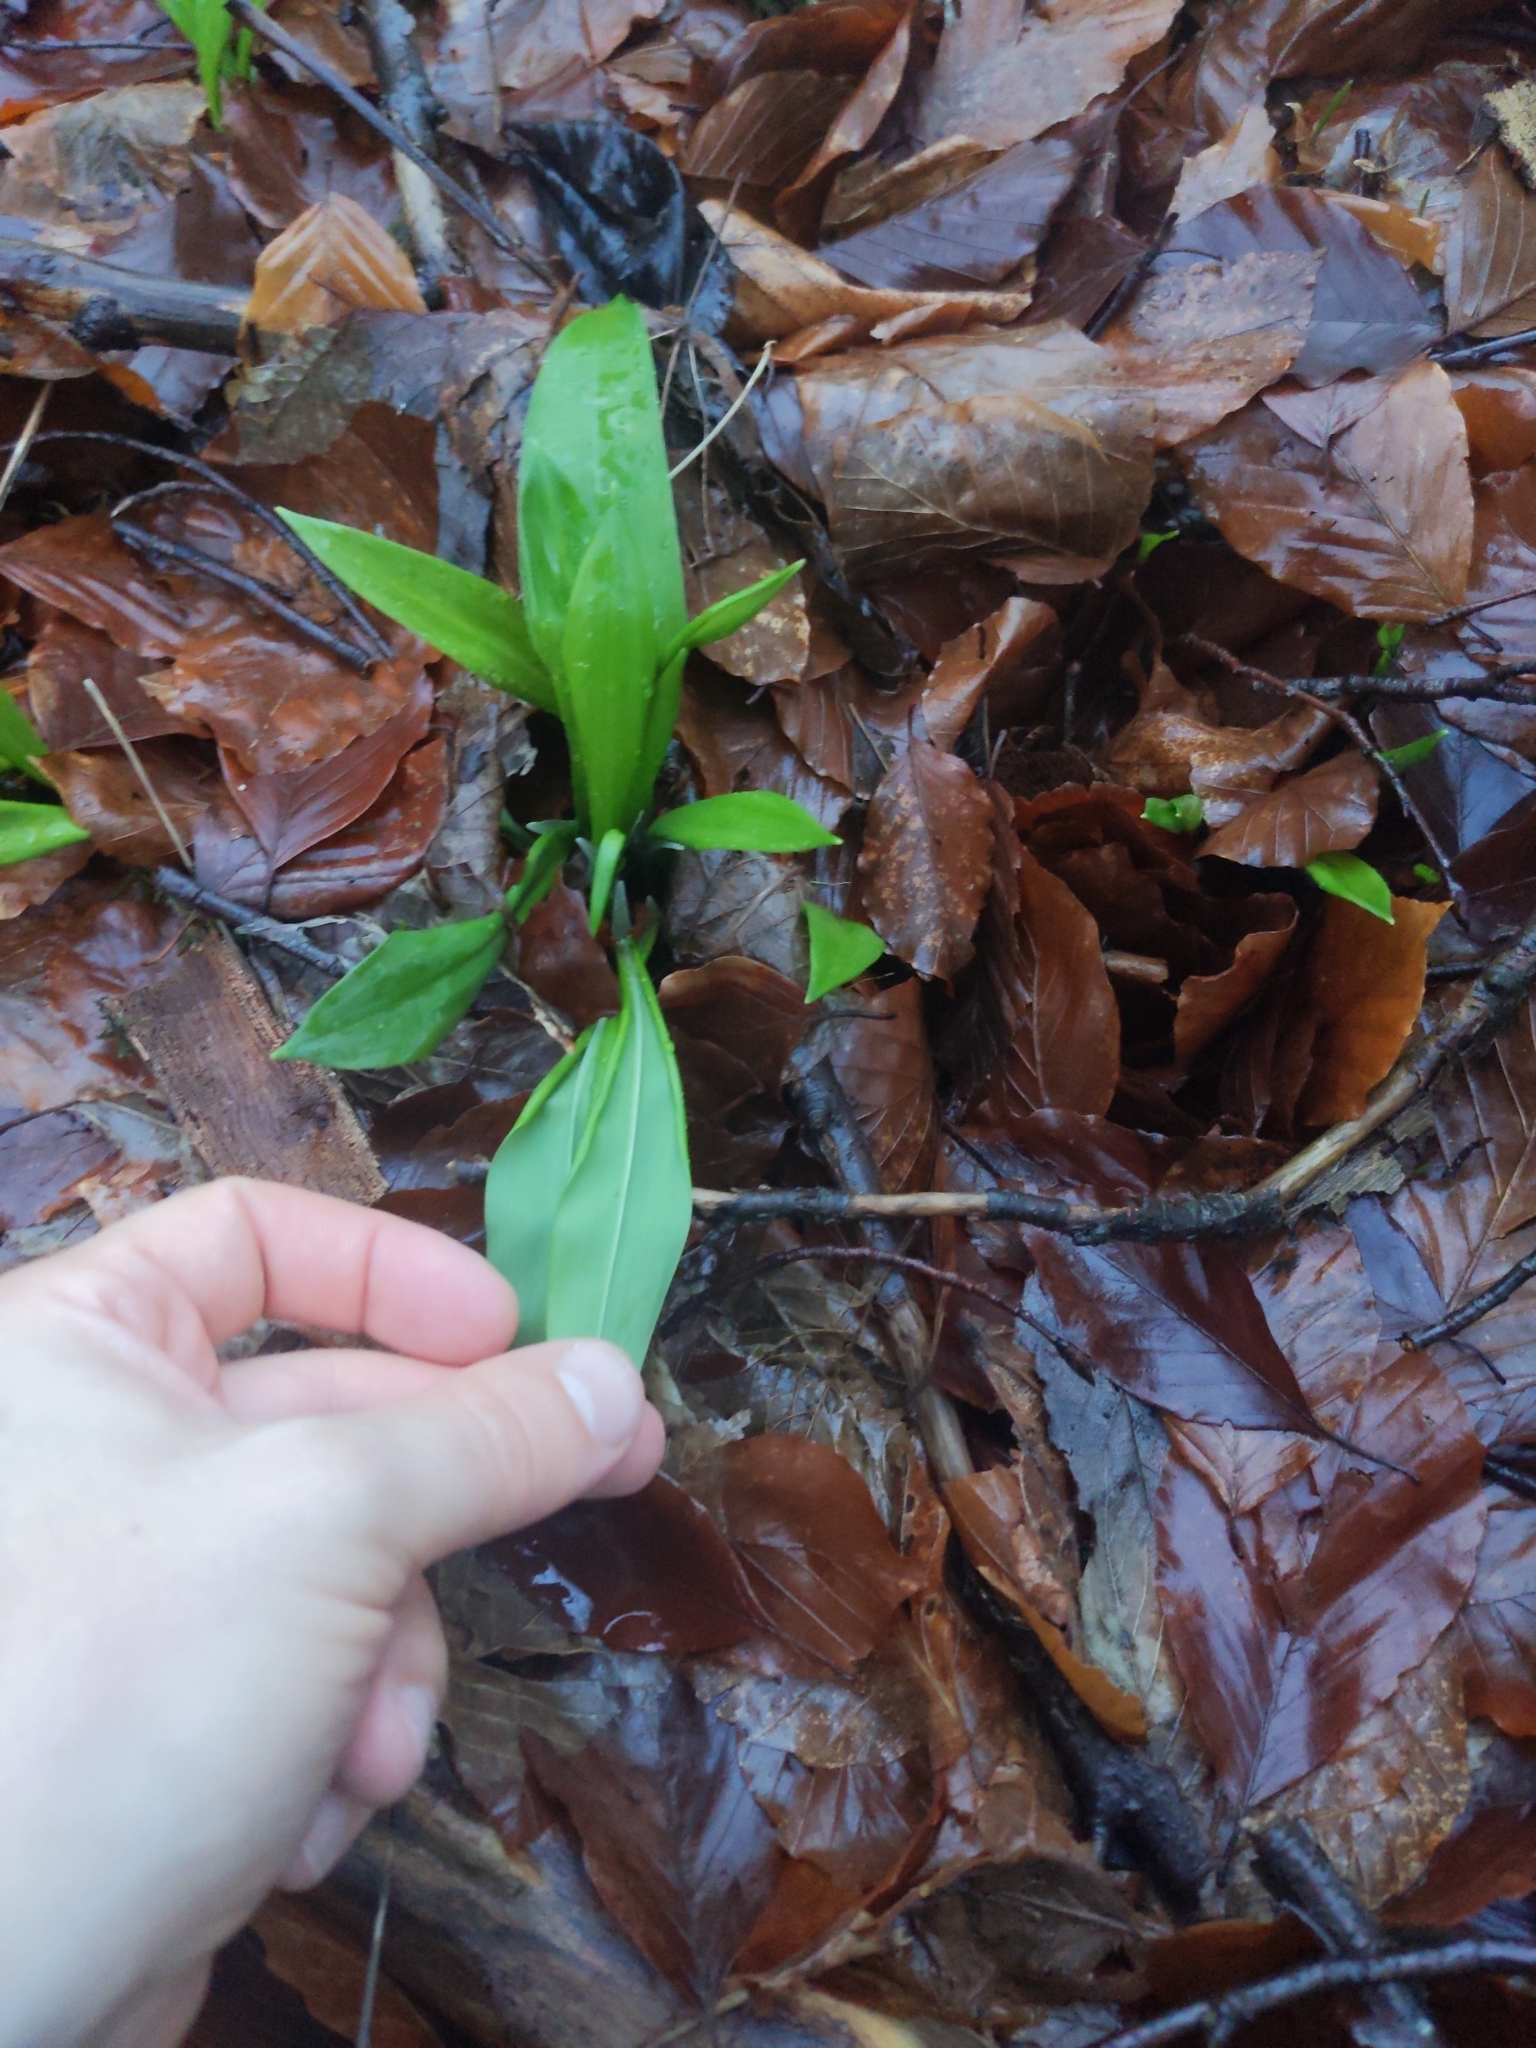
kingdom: Plantae
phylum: Tracheophyta
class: Liliopsida
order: Asparagales
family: Amaryllidaceae
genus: Allium
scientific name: Allium ursinum
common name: Ramsons
